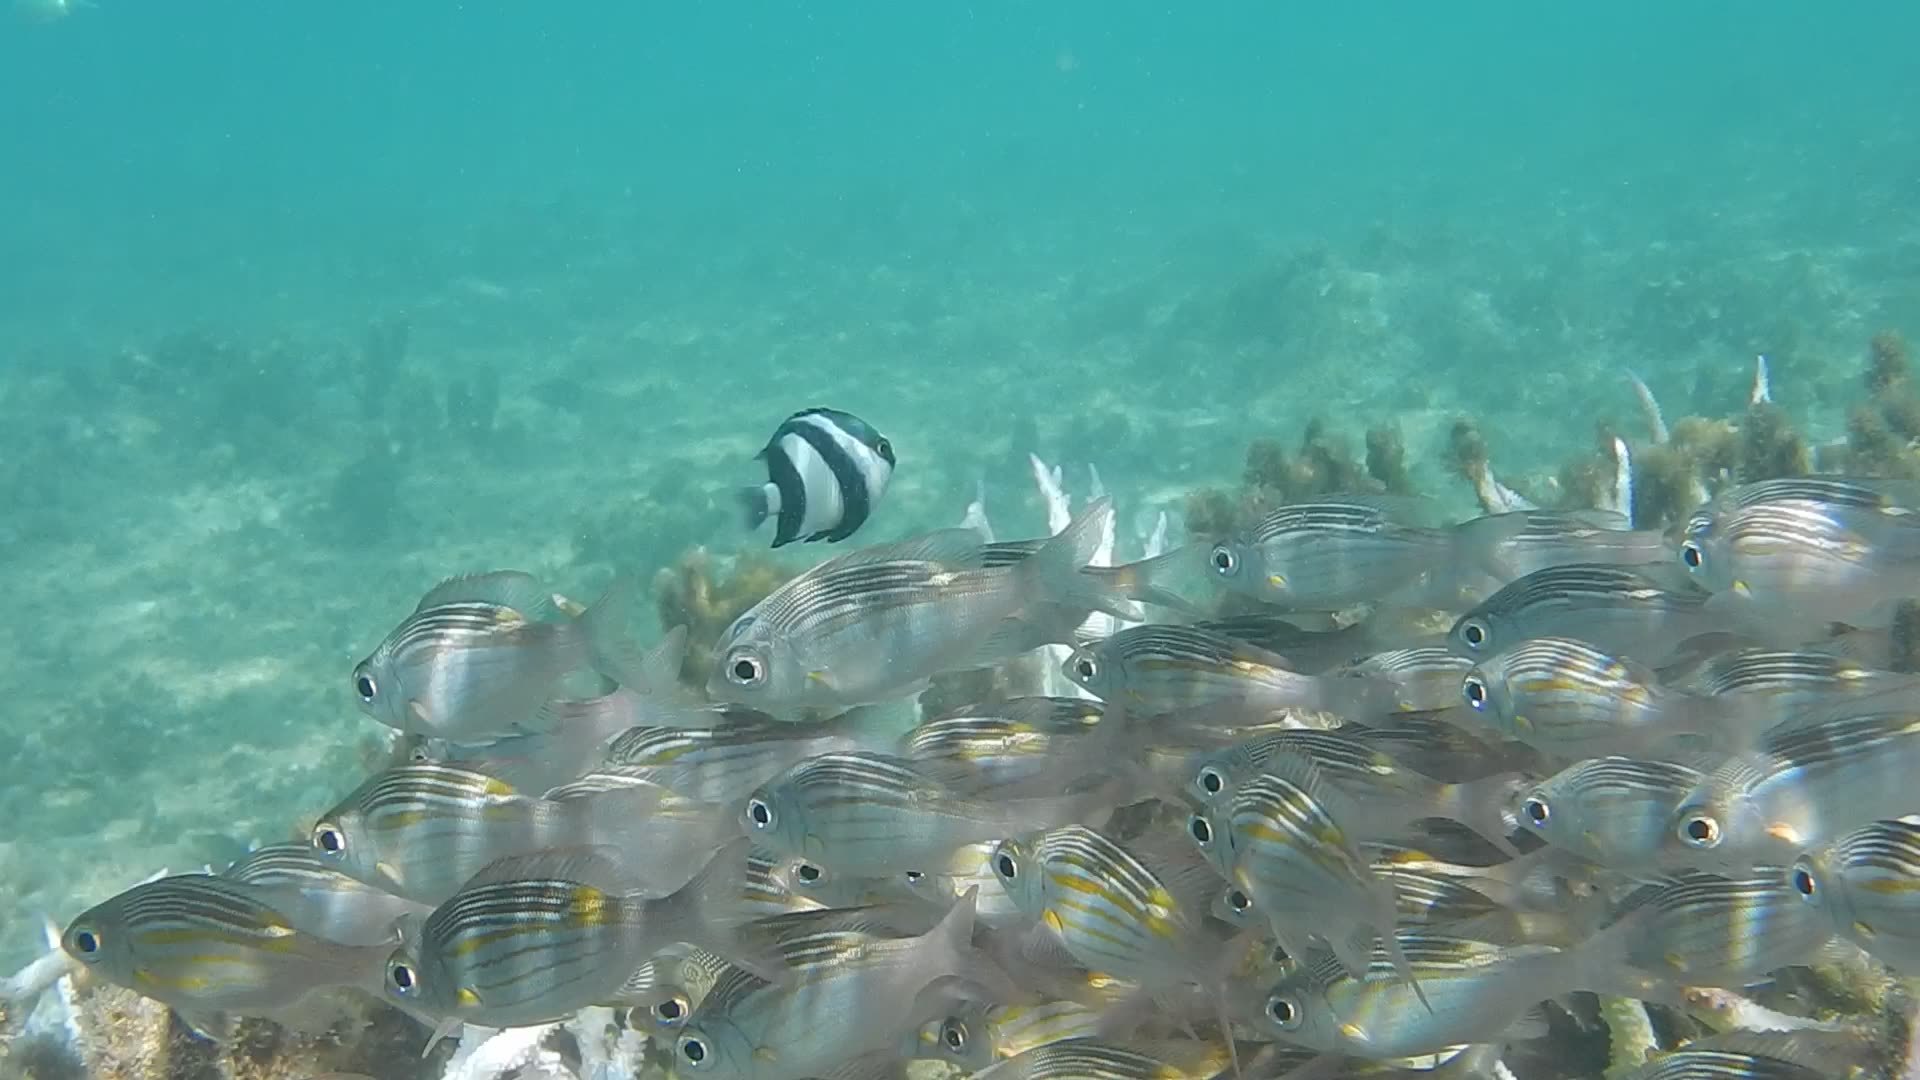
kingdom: Animalia
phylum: Chordata
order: Perciformes
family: Lethrinidae
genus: Gnathodentex
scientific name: Gnathodentex aureolineatus
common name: Gold-lined sea bream
